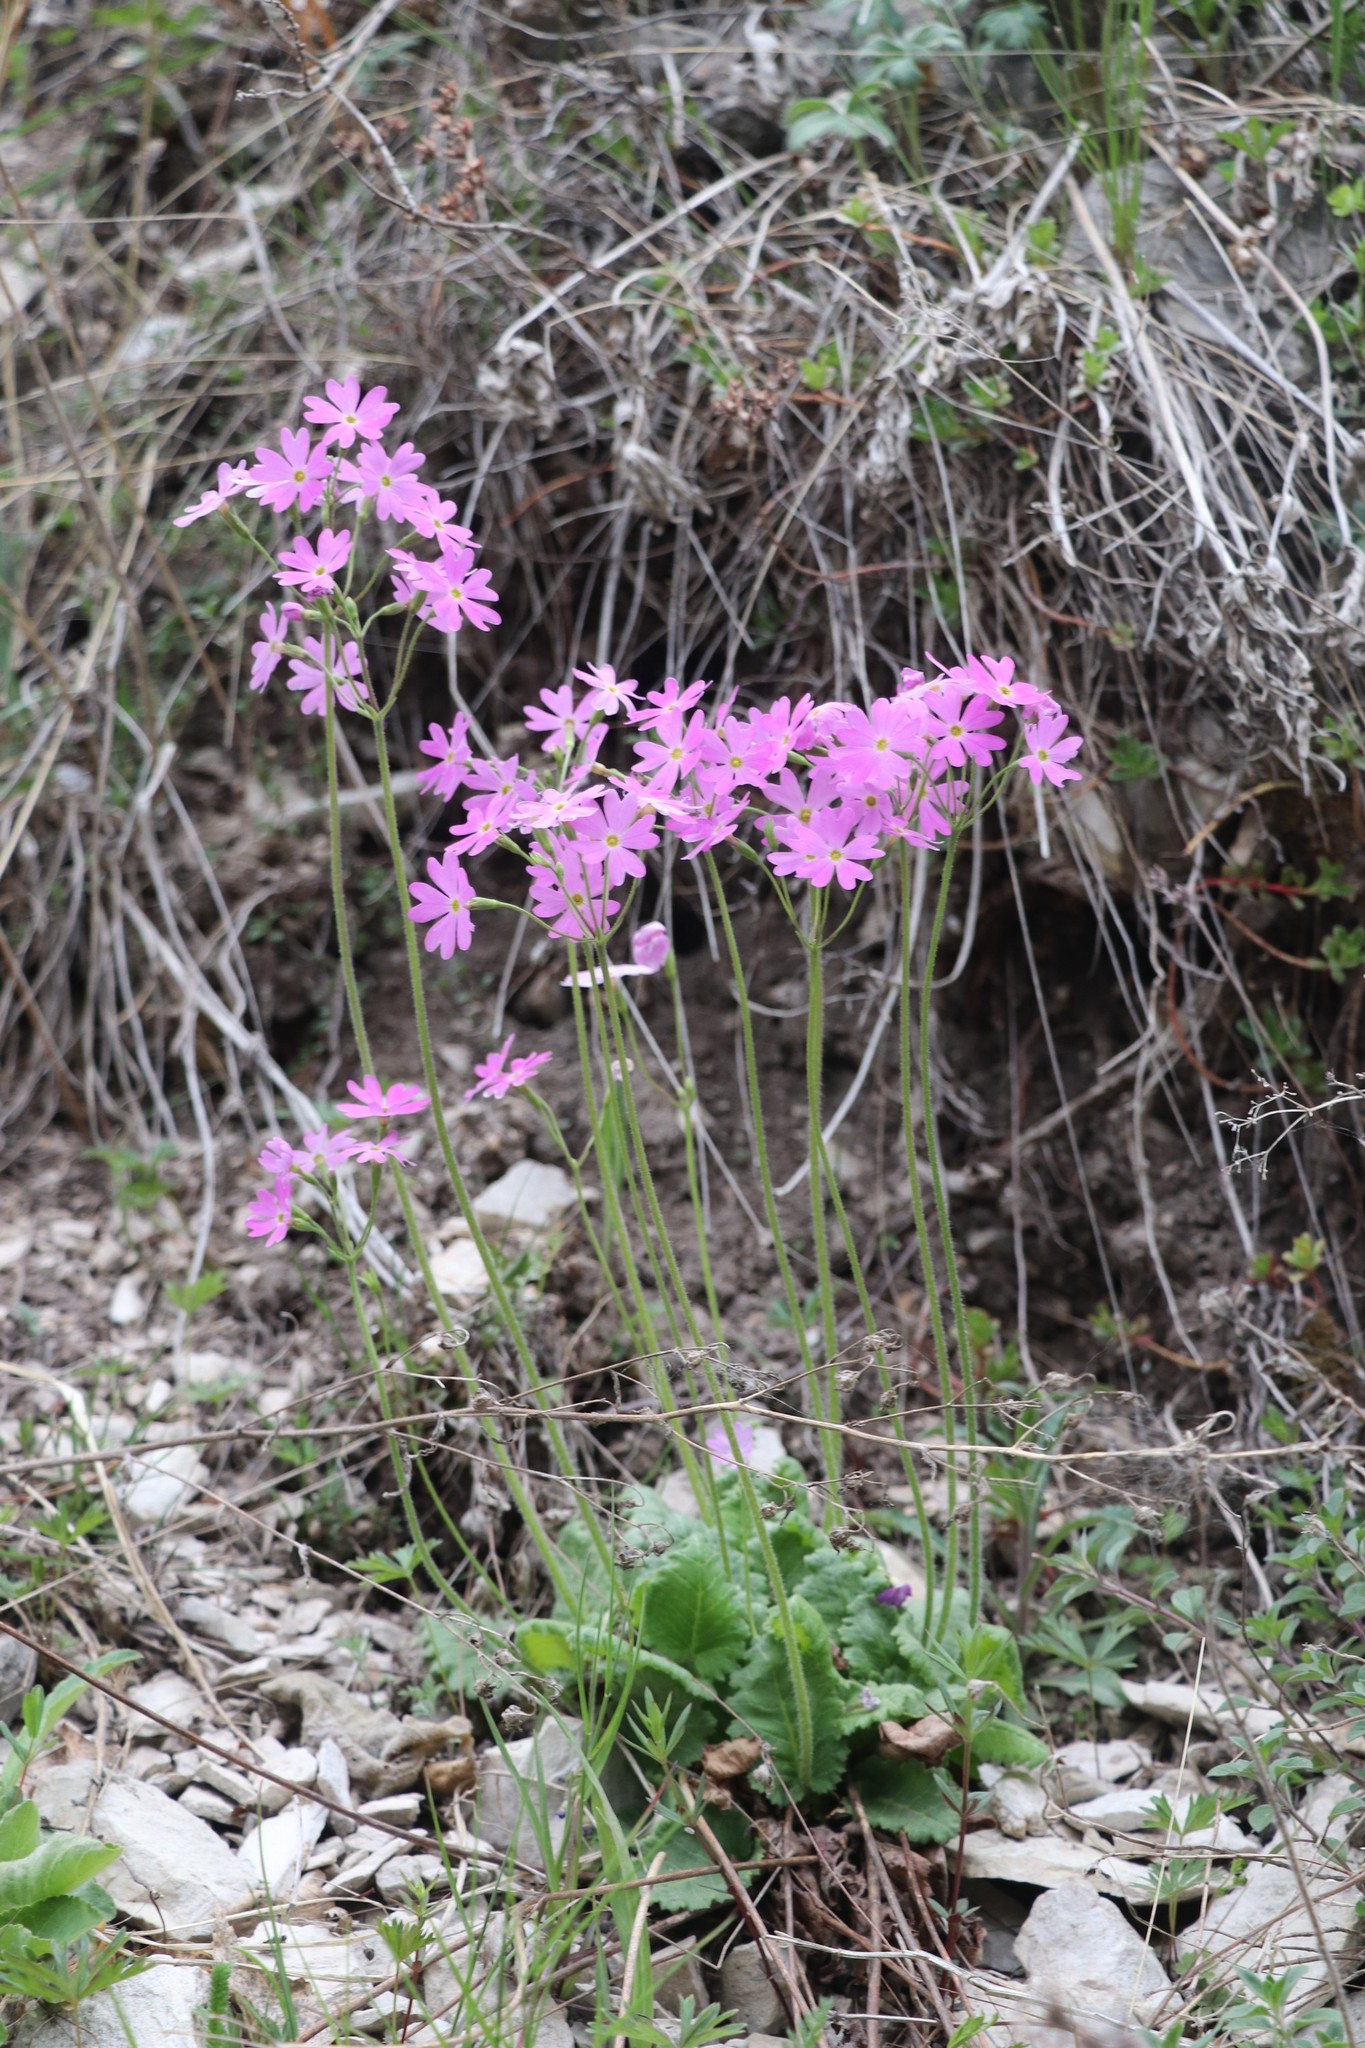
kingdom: Plantae
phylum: Tracheophyta
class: Magnoliopsida
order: Ericales
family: Primulaceae
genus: Primula
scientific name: Primula cortusoides
